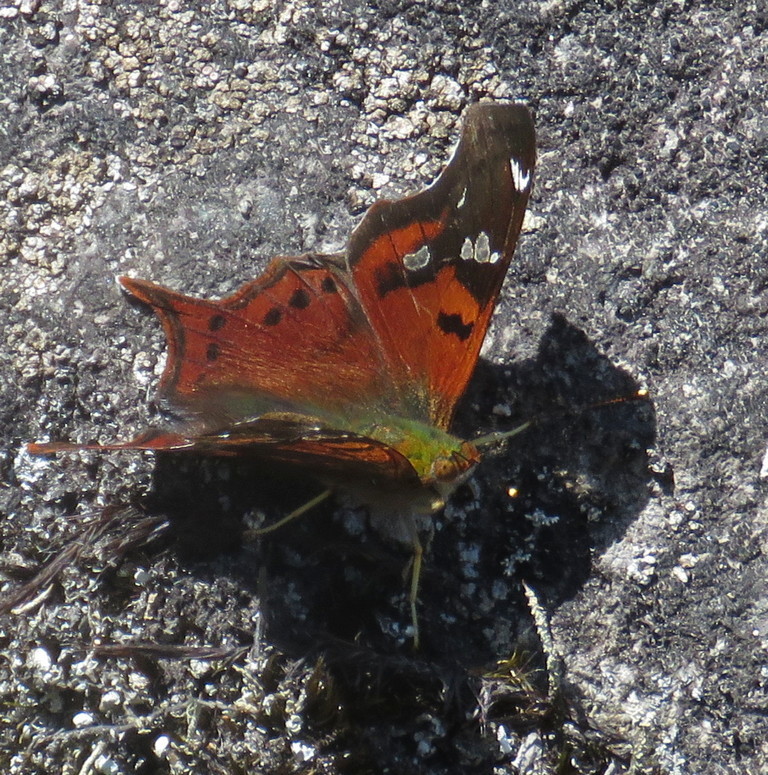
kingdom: Animalia
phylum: Arthropoda
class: Insecta
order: Lepidoptera
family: Nymphalidae
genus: Hypanartia
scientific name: Hypanartia lindigii
